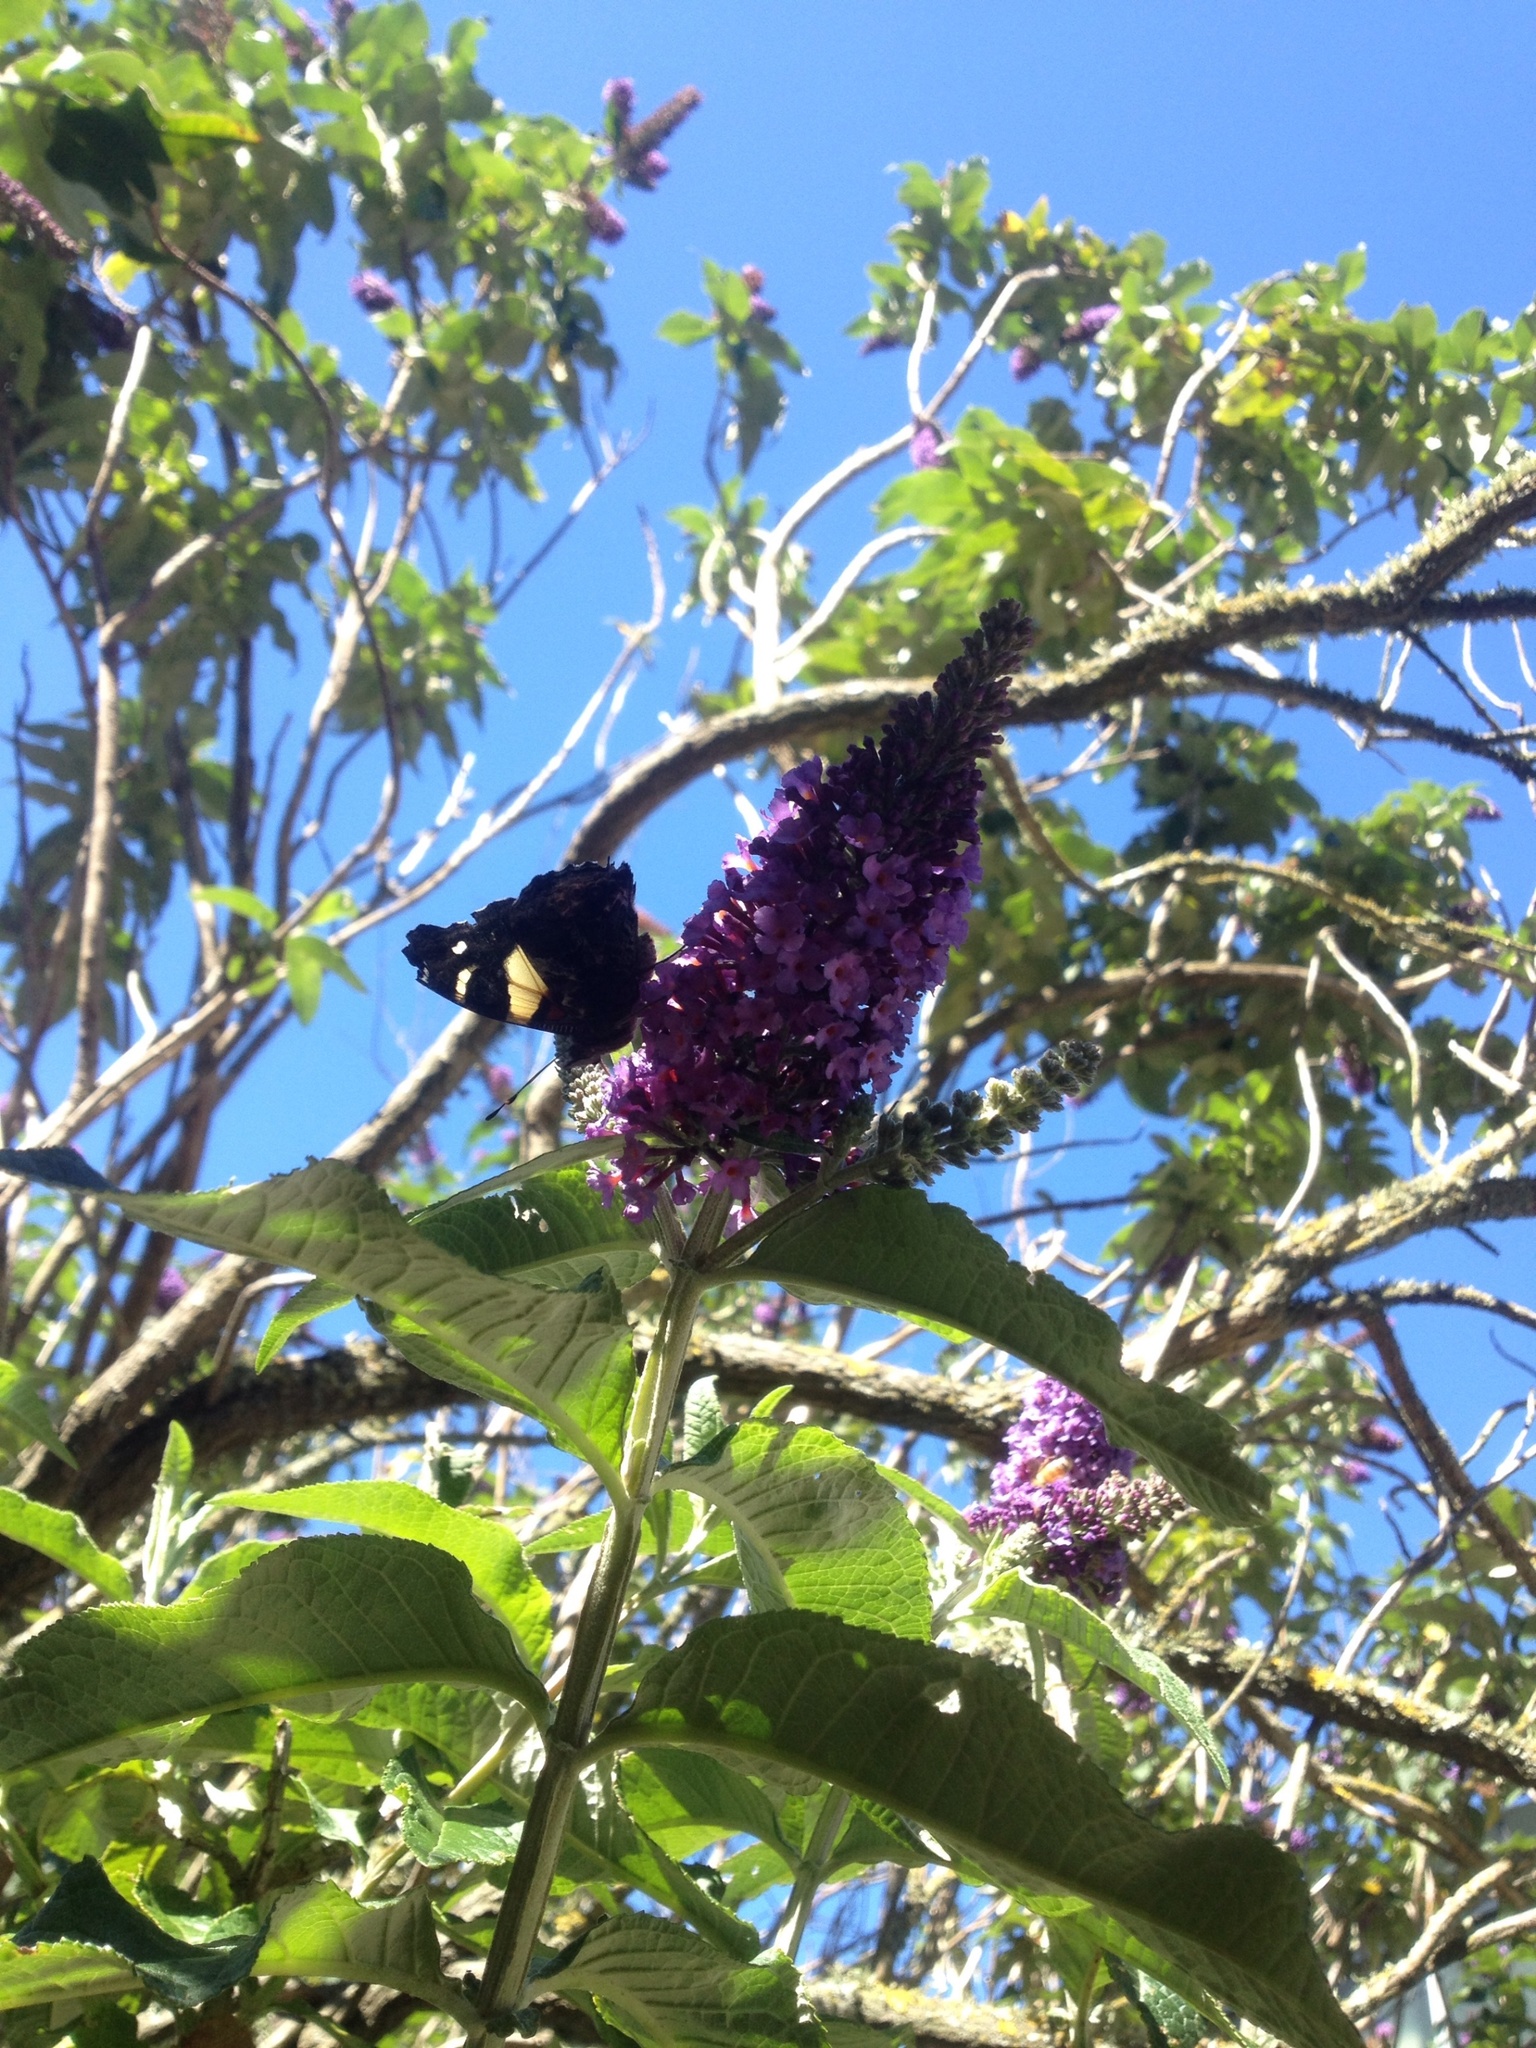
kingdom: Animalia
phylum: Arthropoda
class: Insecta
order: Lepidoptera
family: Nymphalidae
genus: Vanessa
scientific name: Vanessa itea
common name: Yellow admiral
